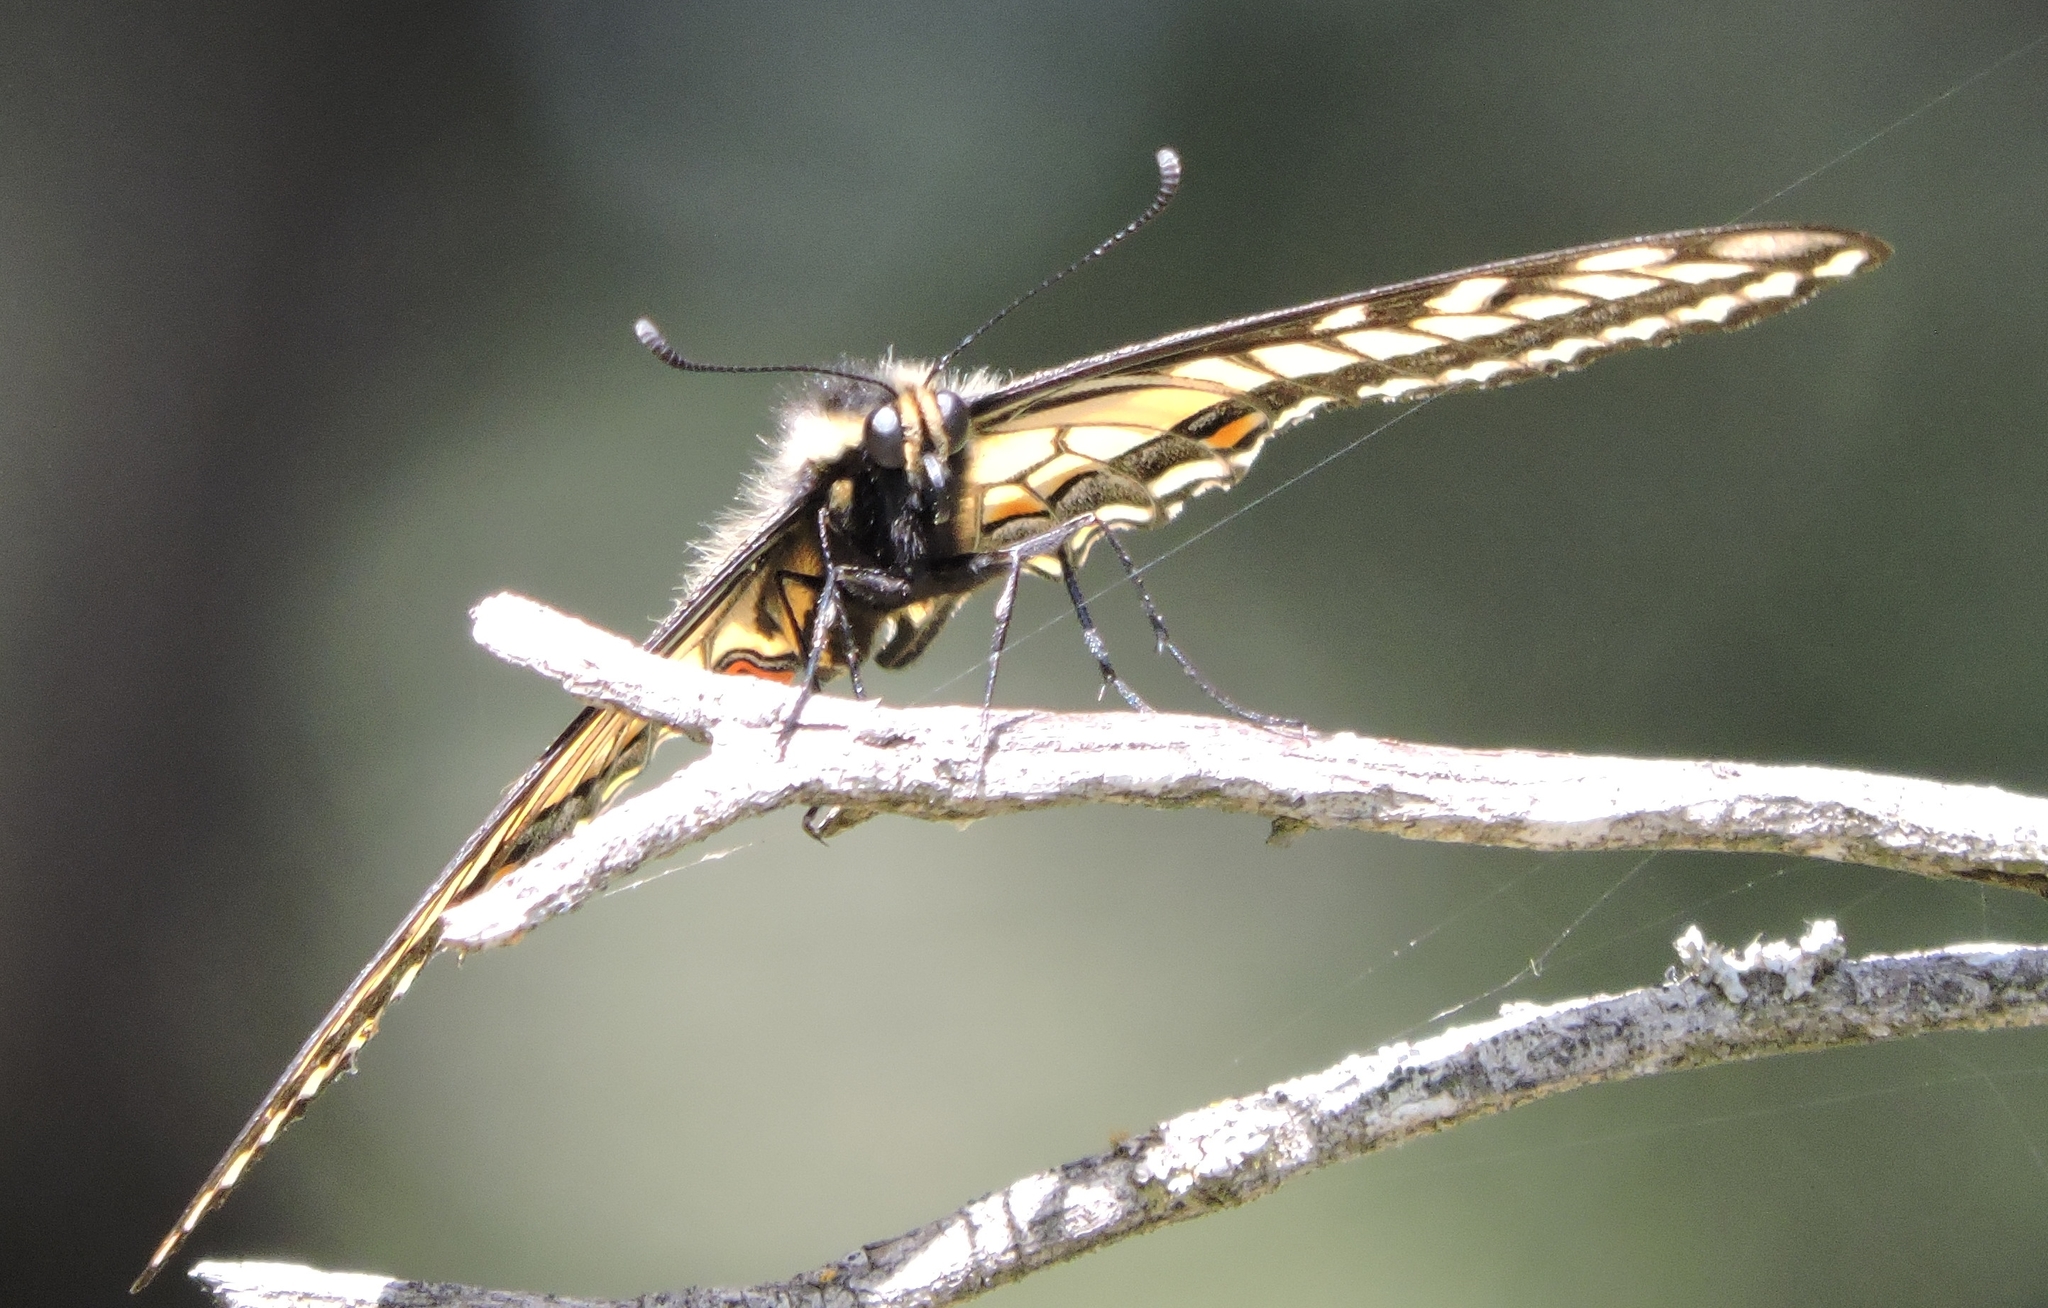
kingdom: Animalia
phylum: Arthropoda
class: Insecta
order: Lepidoptera
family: Papilionidae
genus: Papilio
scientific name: Papilio zelicaon
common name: Anise swallowtail
